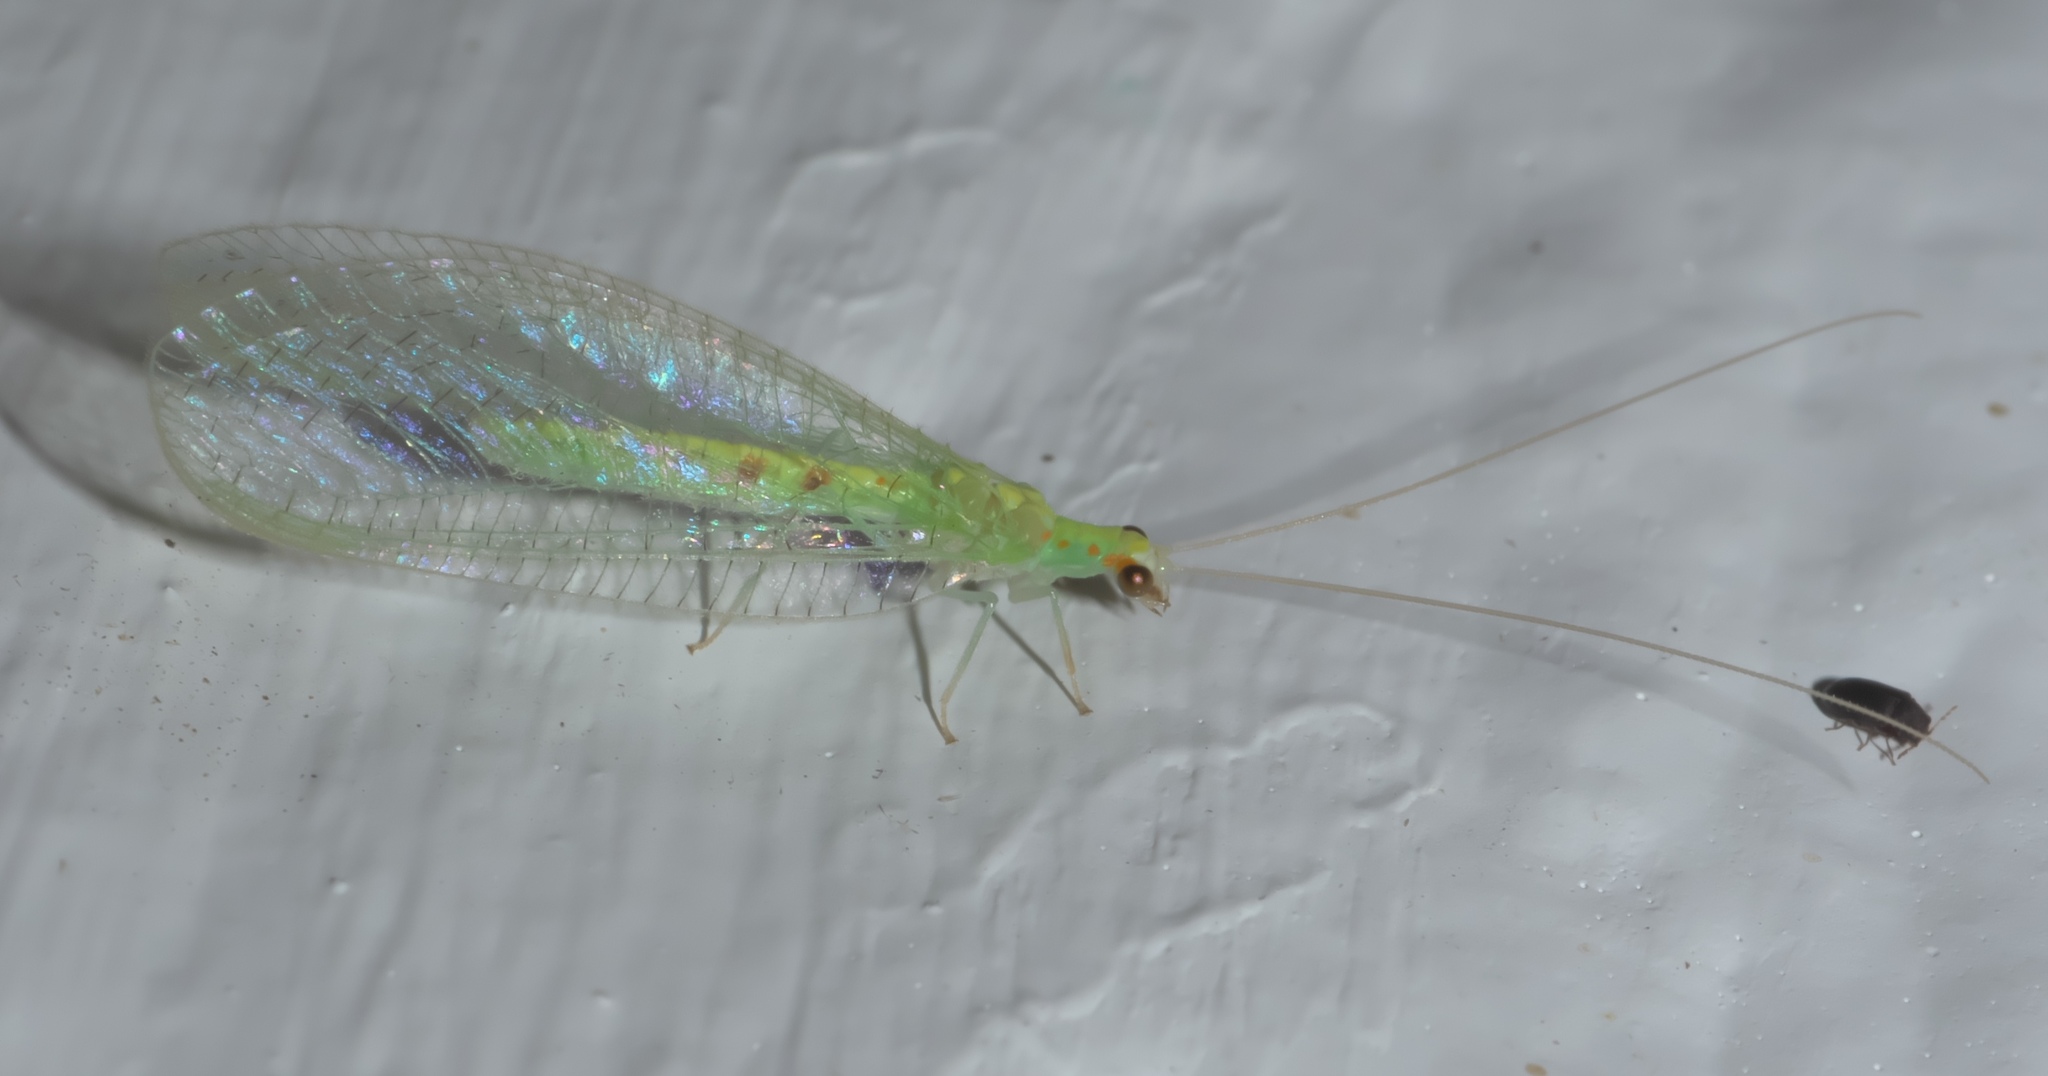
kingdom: Animalia
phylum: Arthropoda
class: Insecta
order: Neuroptera
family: Chrysopidae
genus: Chrysopa
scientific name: Chrysopa quadripunctata
